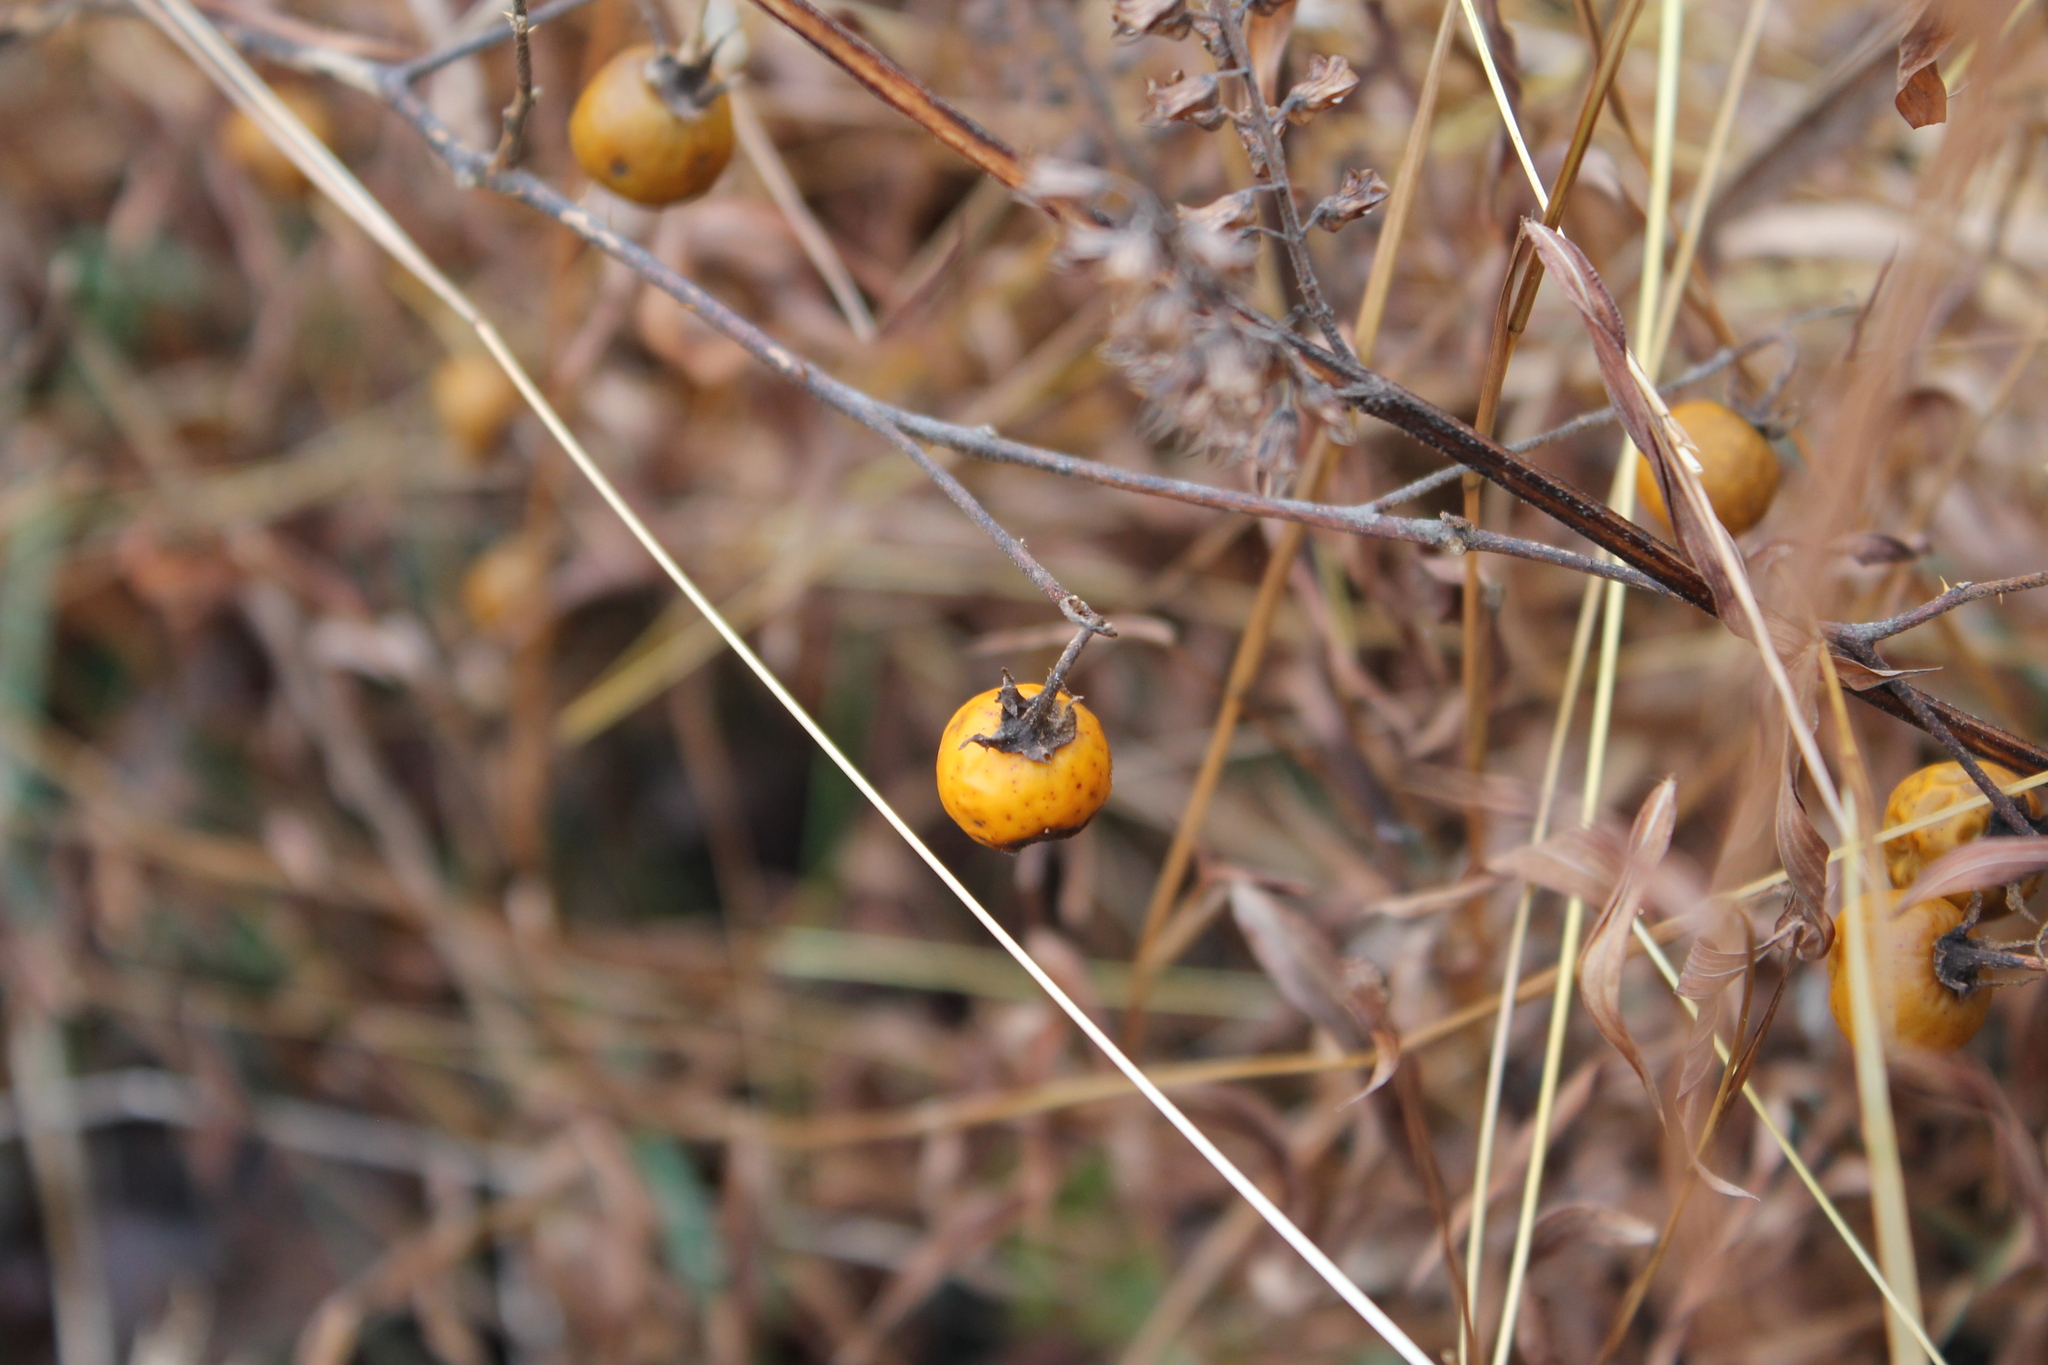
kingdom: Plantae
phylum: Tracheophyta
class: Magnoliopsida
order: Solanales
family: Solanaceae
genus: Solanum
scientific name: Solanum carolinense
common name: Horse-nettle
